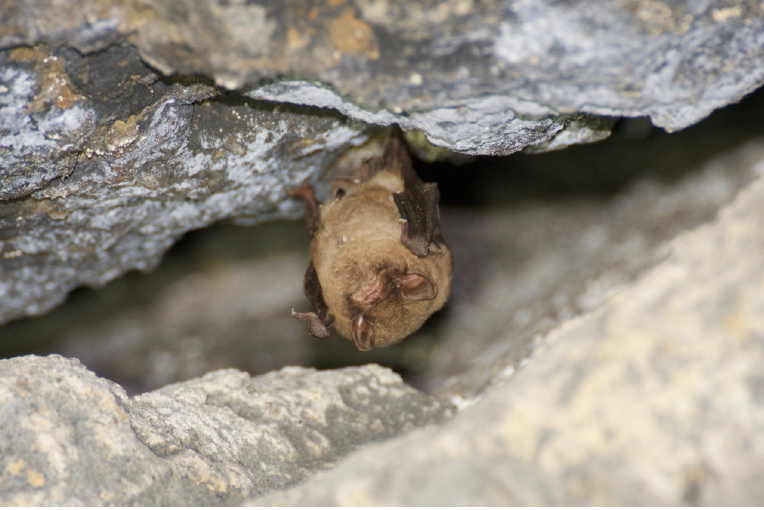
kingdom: Animalia
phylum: Chordata
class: Mammalia
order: Chiroptera
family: Miniopteridae
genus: Miniopterus
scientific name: Miniopterus schreibersii
